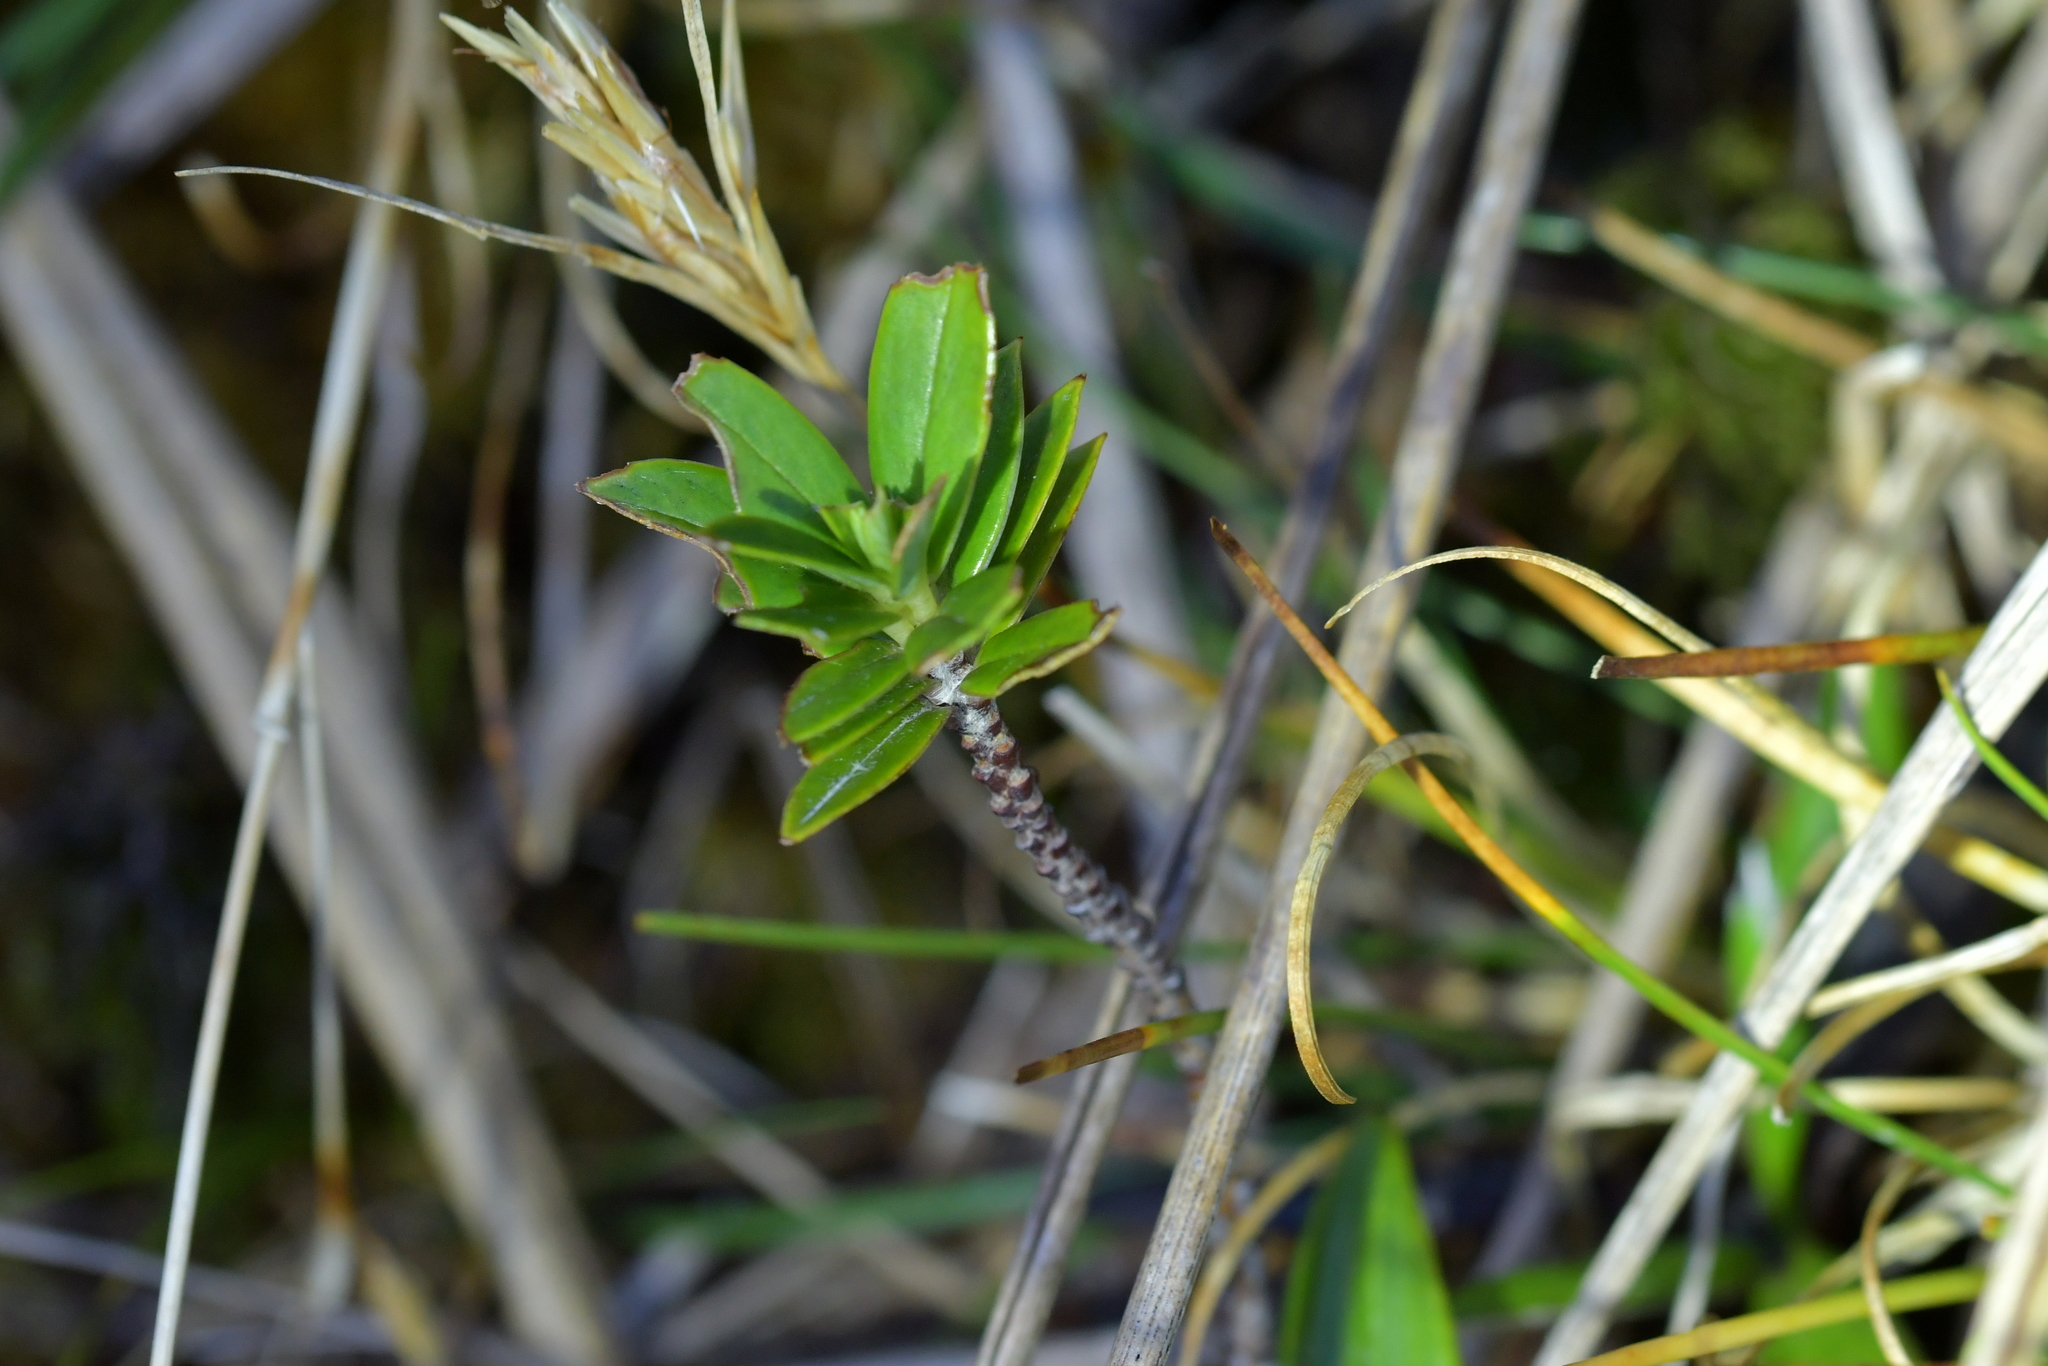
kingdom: Plantae
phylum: Tracheophyta
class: Magnoliopsida
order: Malvales
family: Thymelaeaceae
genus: Pimelea
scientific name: Pimelea gnidia
